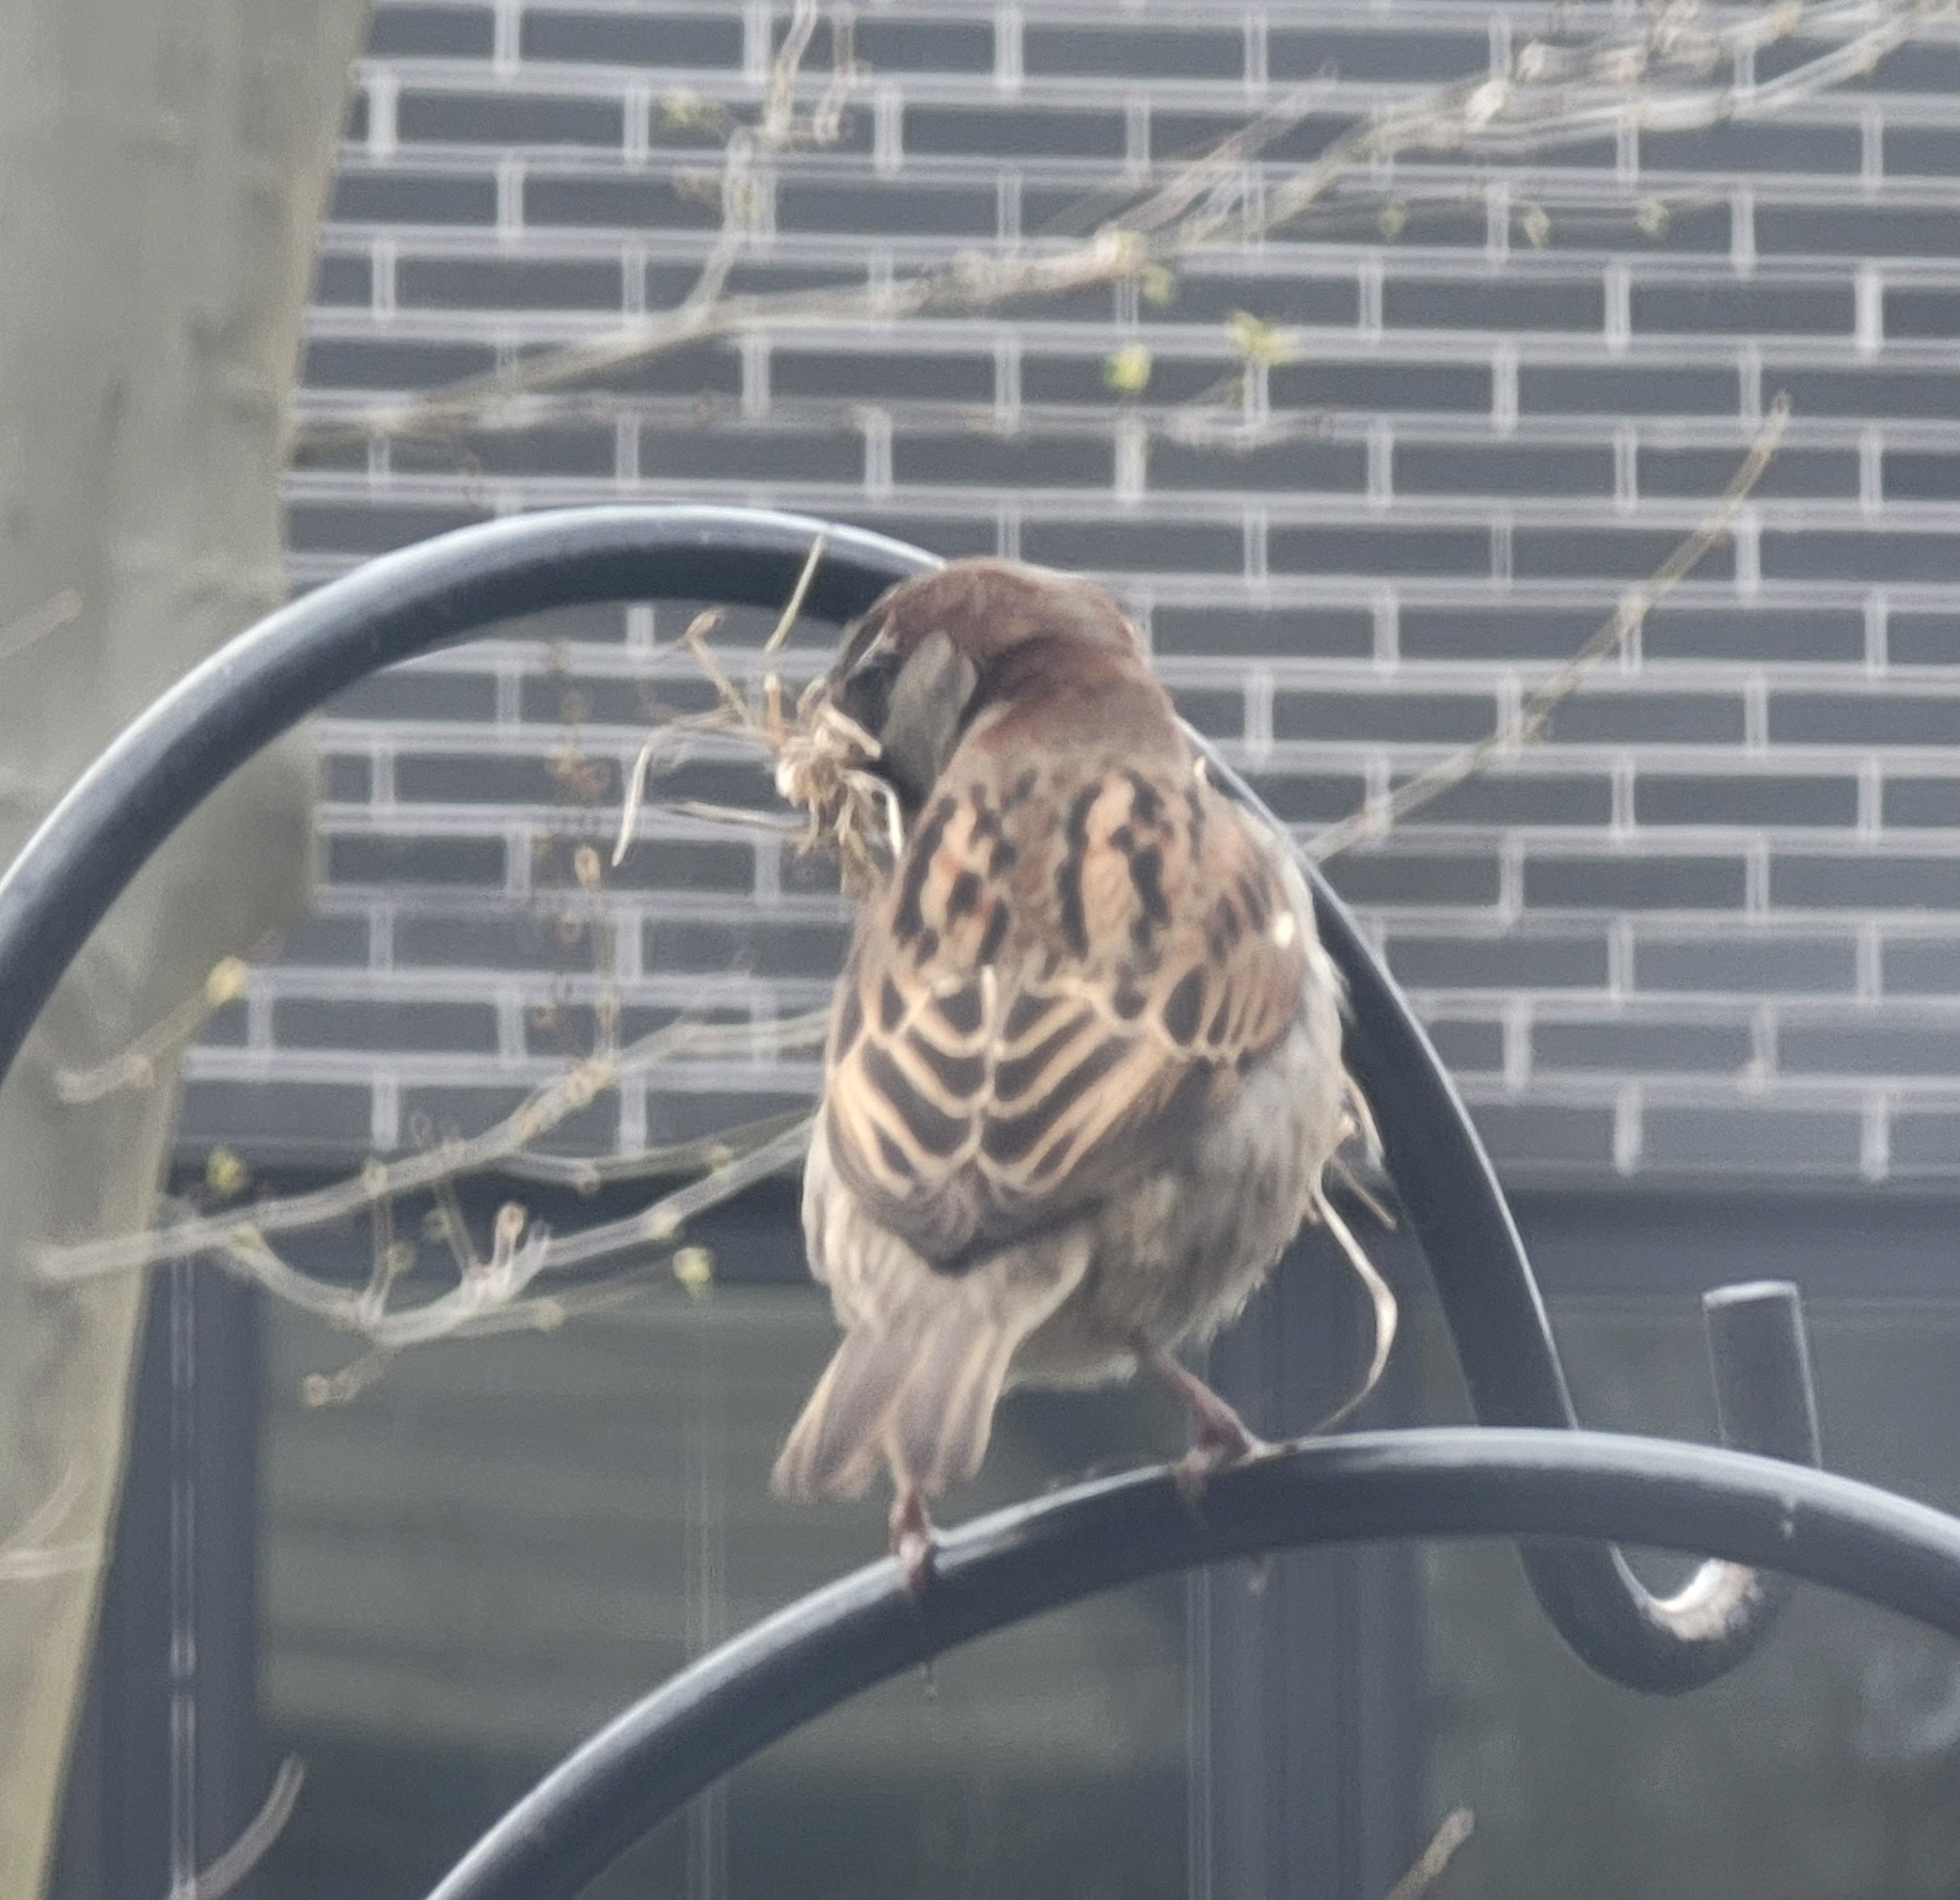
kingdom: Animalia
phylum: Chordata
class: Aves
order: Passeriformes
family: Passeridae
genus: Passer
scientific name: Passer domesticus
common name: House sparrow
